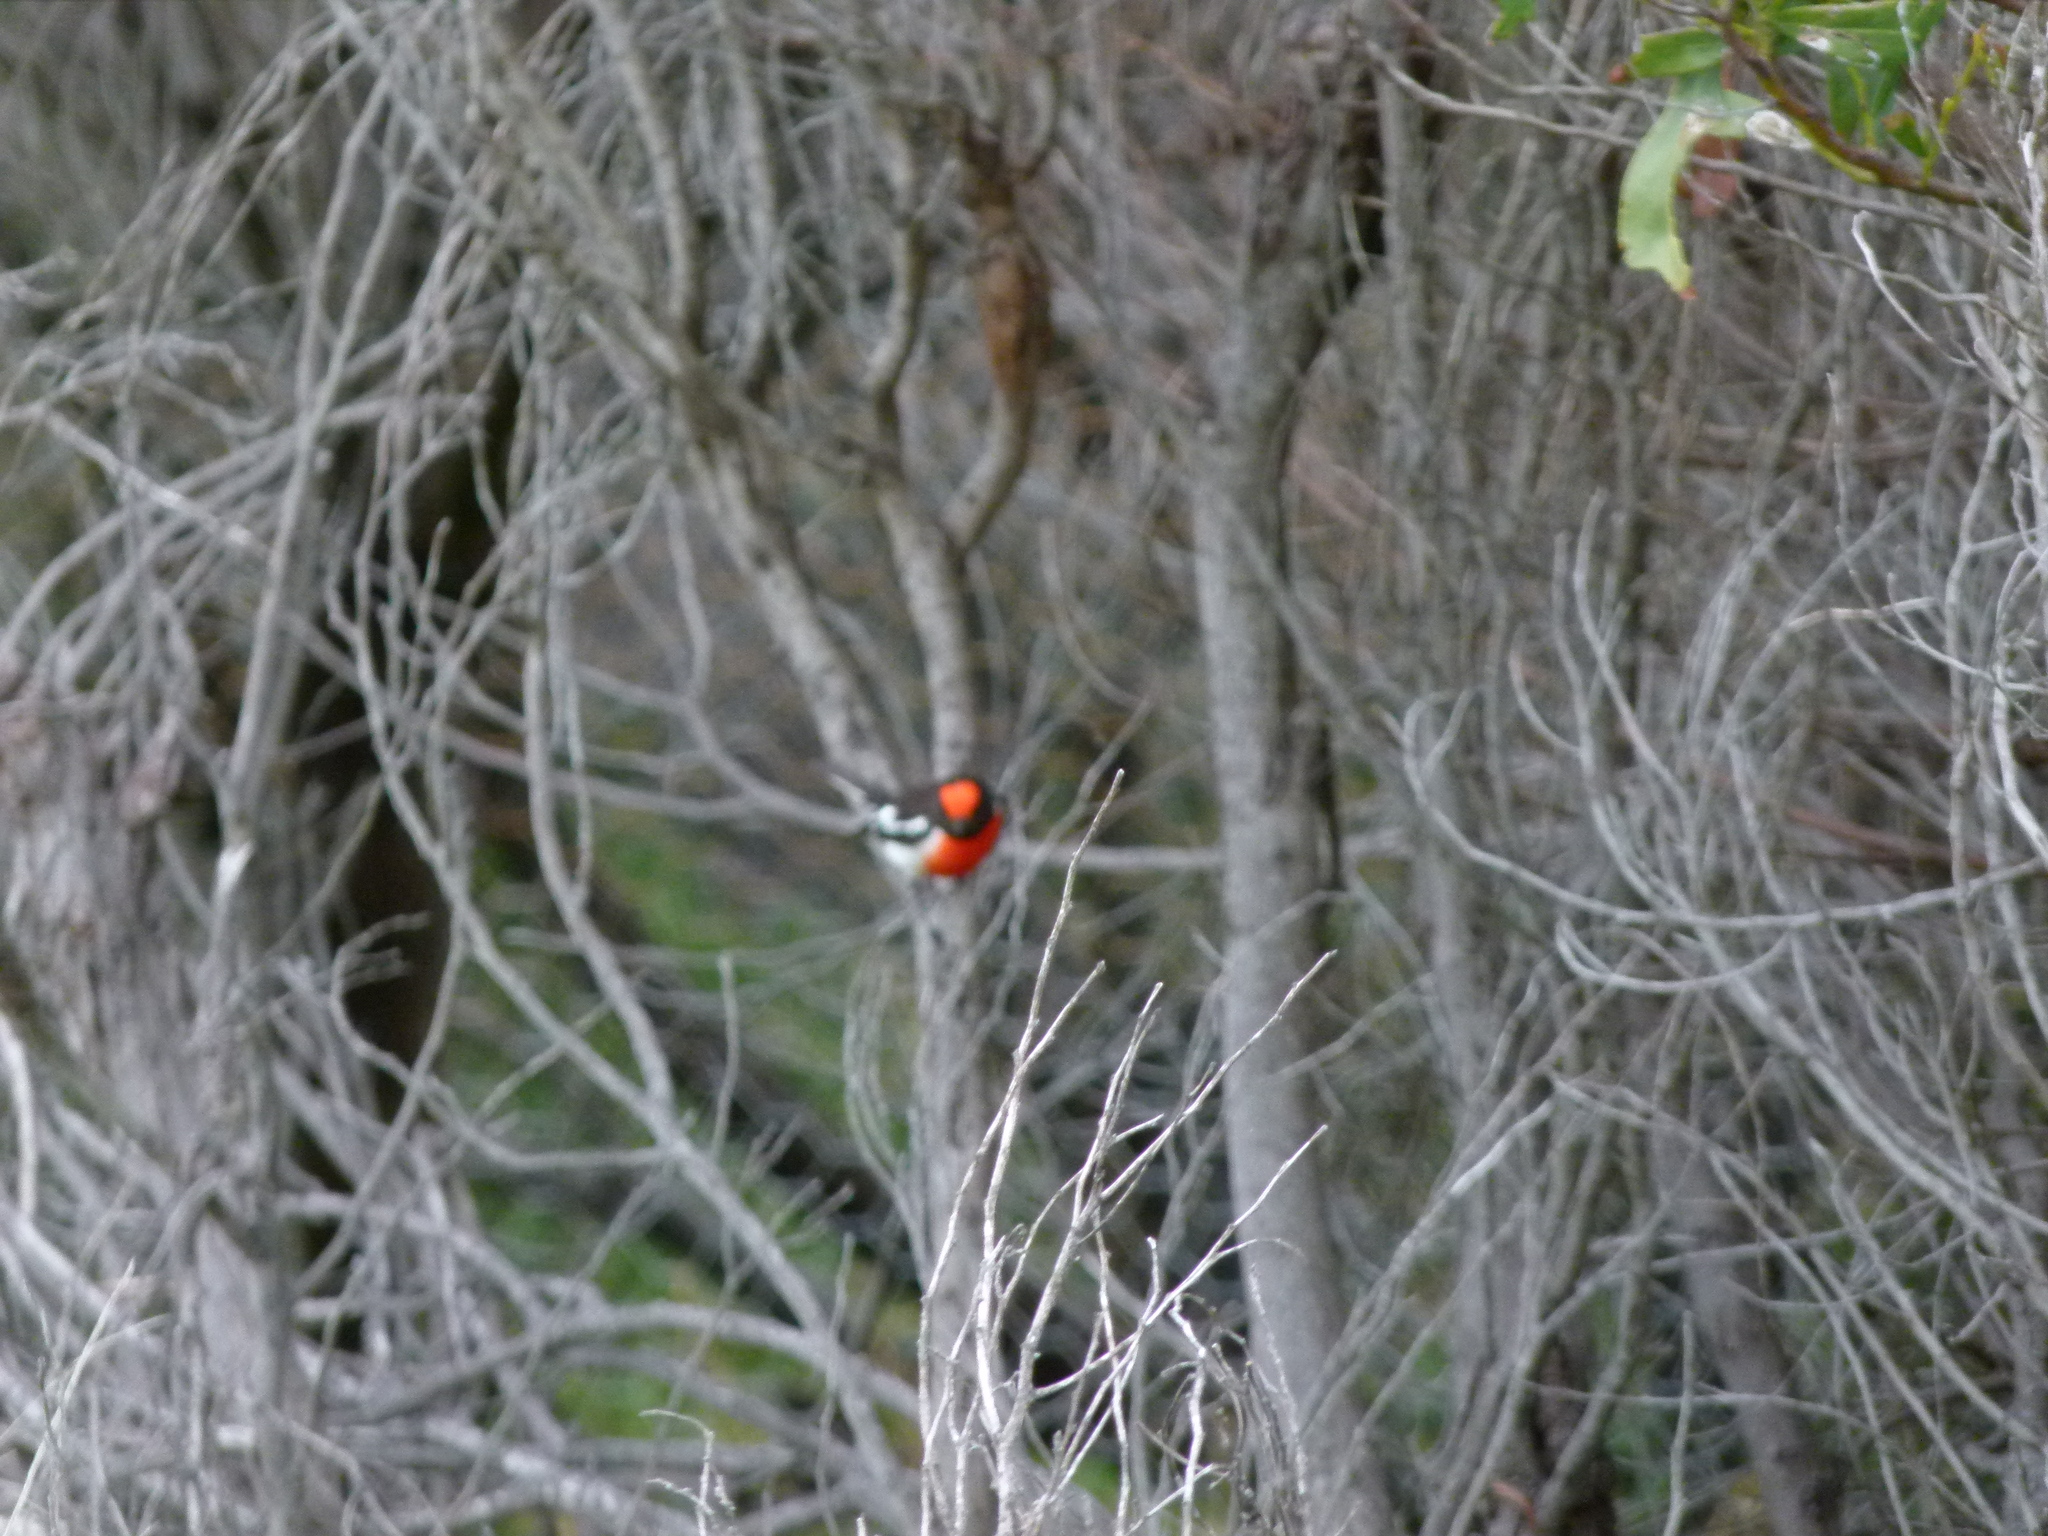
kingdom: Animalia
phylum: Chordata
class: Aves
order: Passeriformes
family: Petroicidae
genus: Petroica
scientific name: Petroica goodenovii
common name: Red-capped robin
